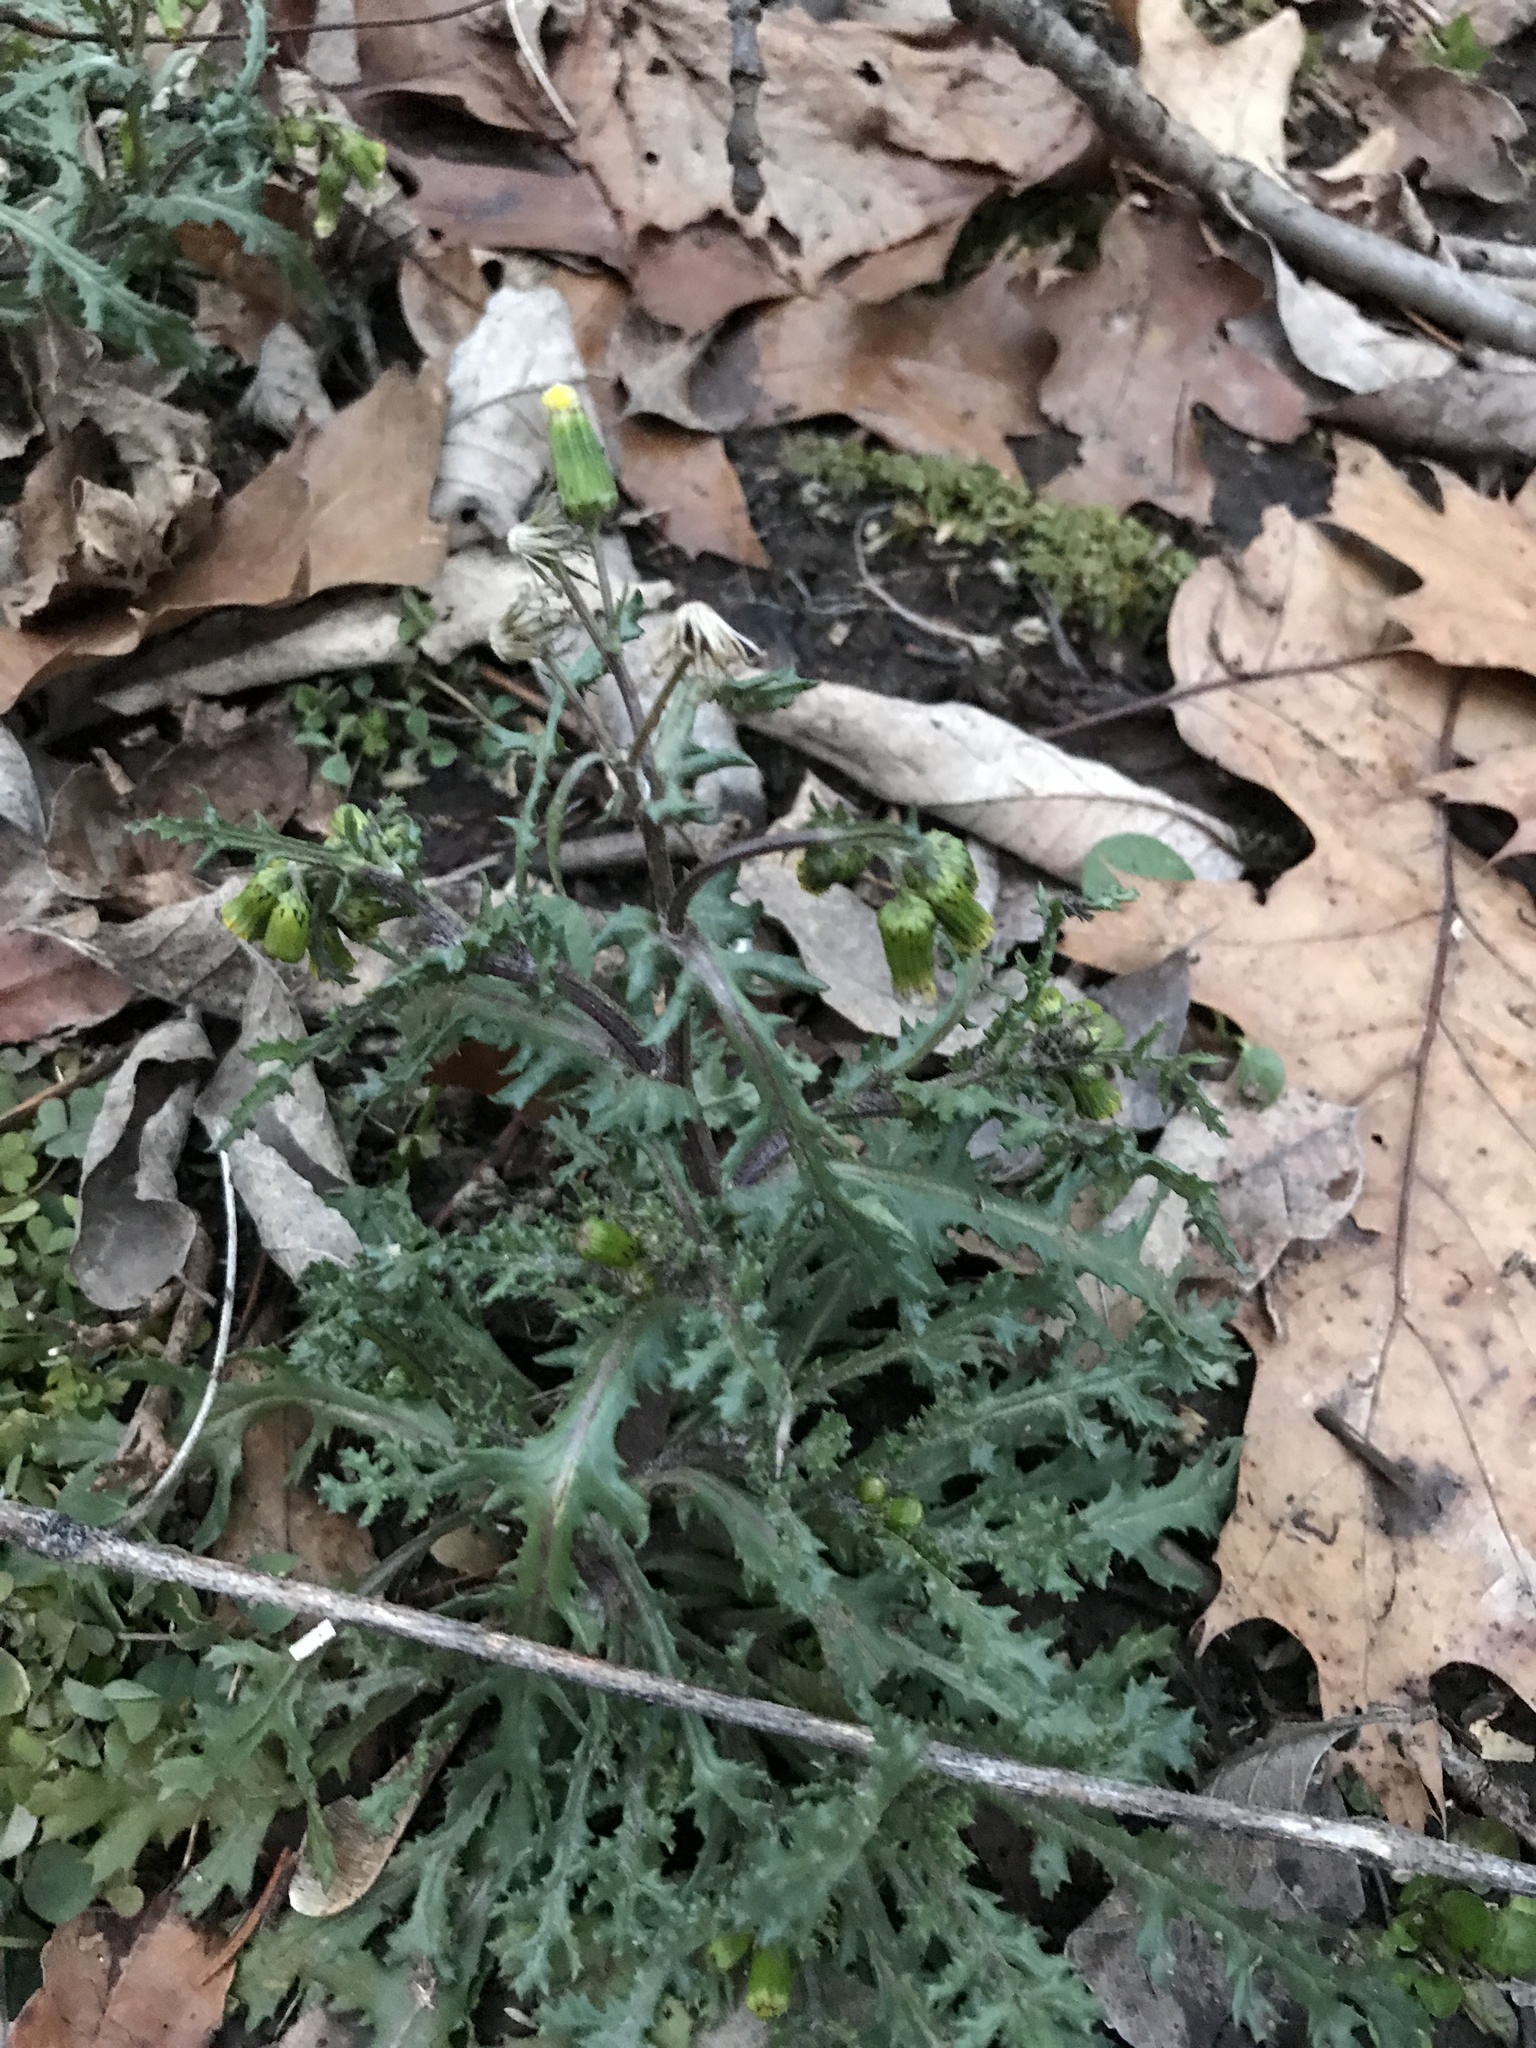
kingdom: Plantae
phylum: Tracheophyta
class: Magnoliopsida
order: Asterales
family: Asteraceae
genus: Senecio
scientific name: Senecio vulgaris
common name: Old-man-in-the-spring
